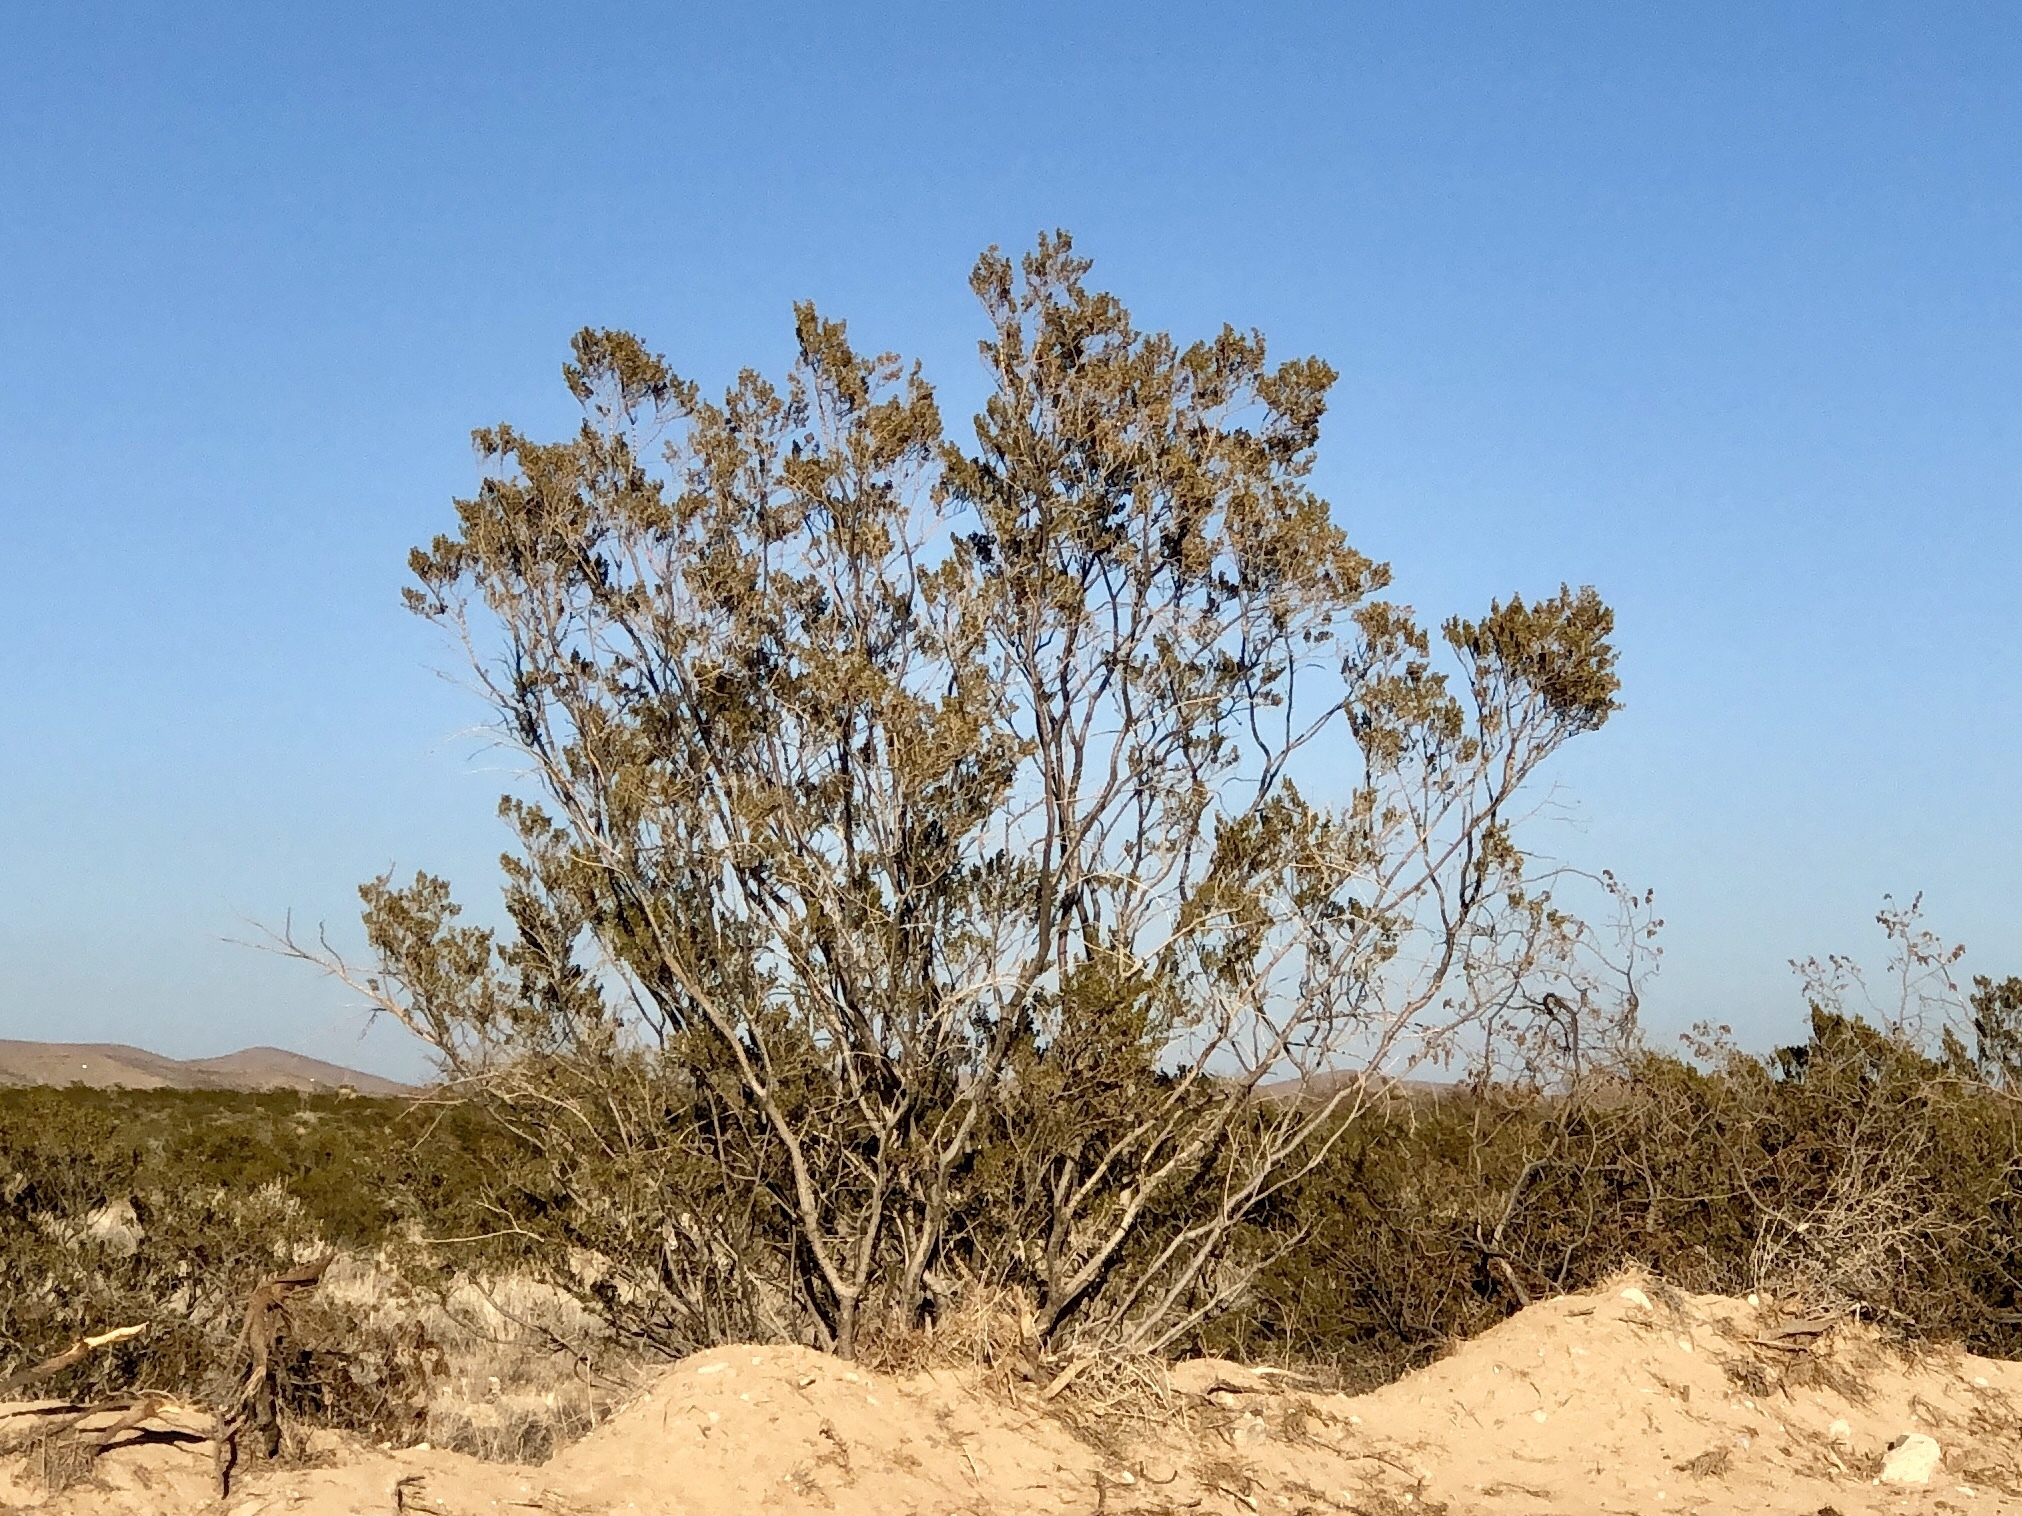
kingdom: Plantae
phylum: Tracheophyta
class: Magnoliopsida
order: Zygophyllales
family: Zygophyllaceae
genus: Larrea
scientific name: Larrea tridentata
